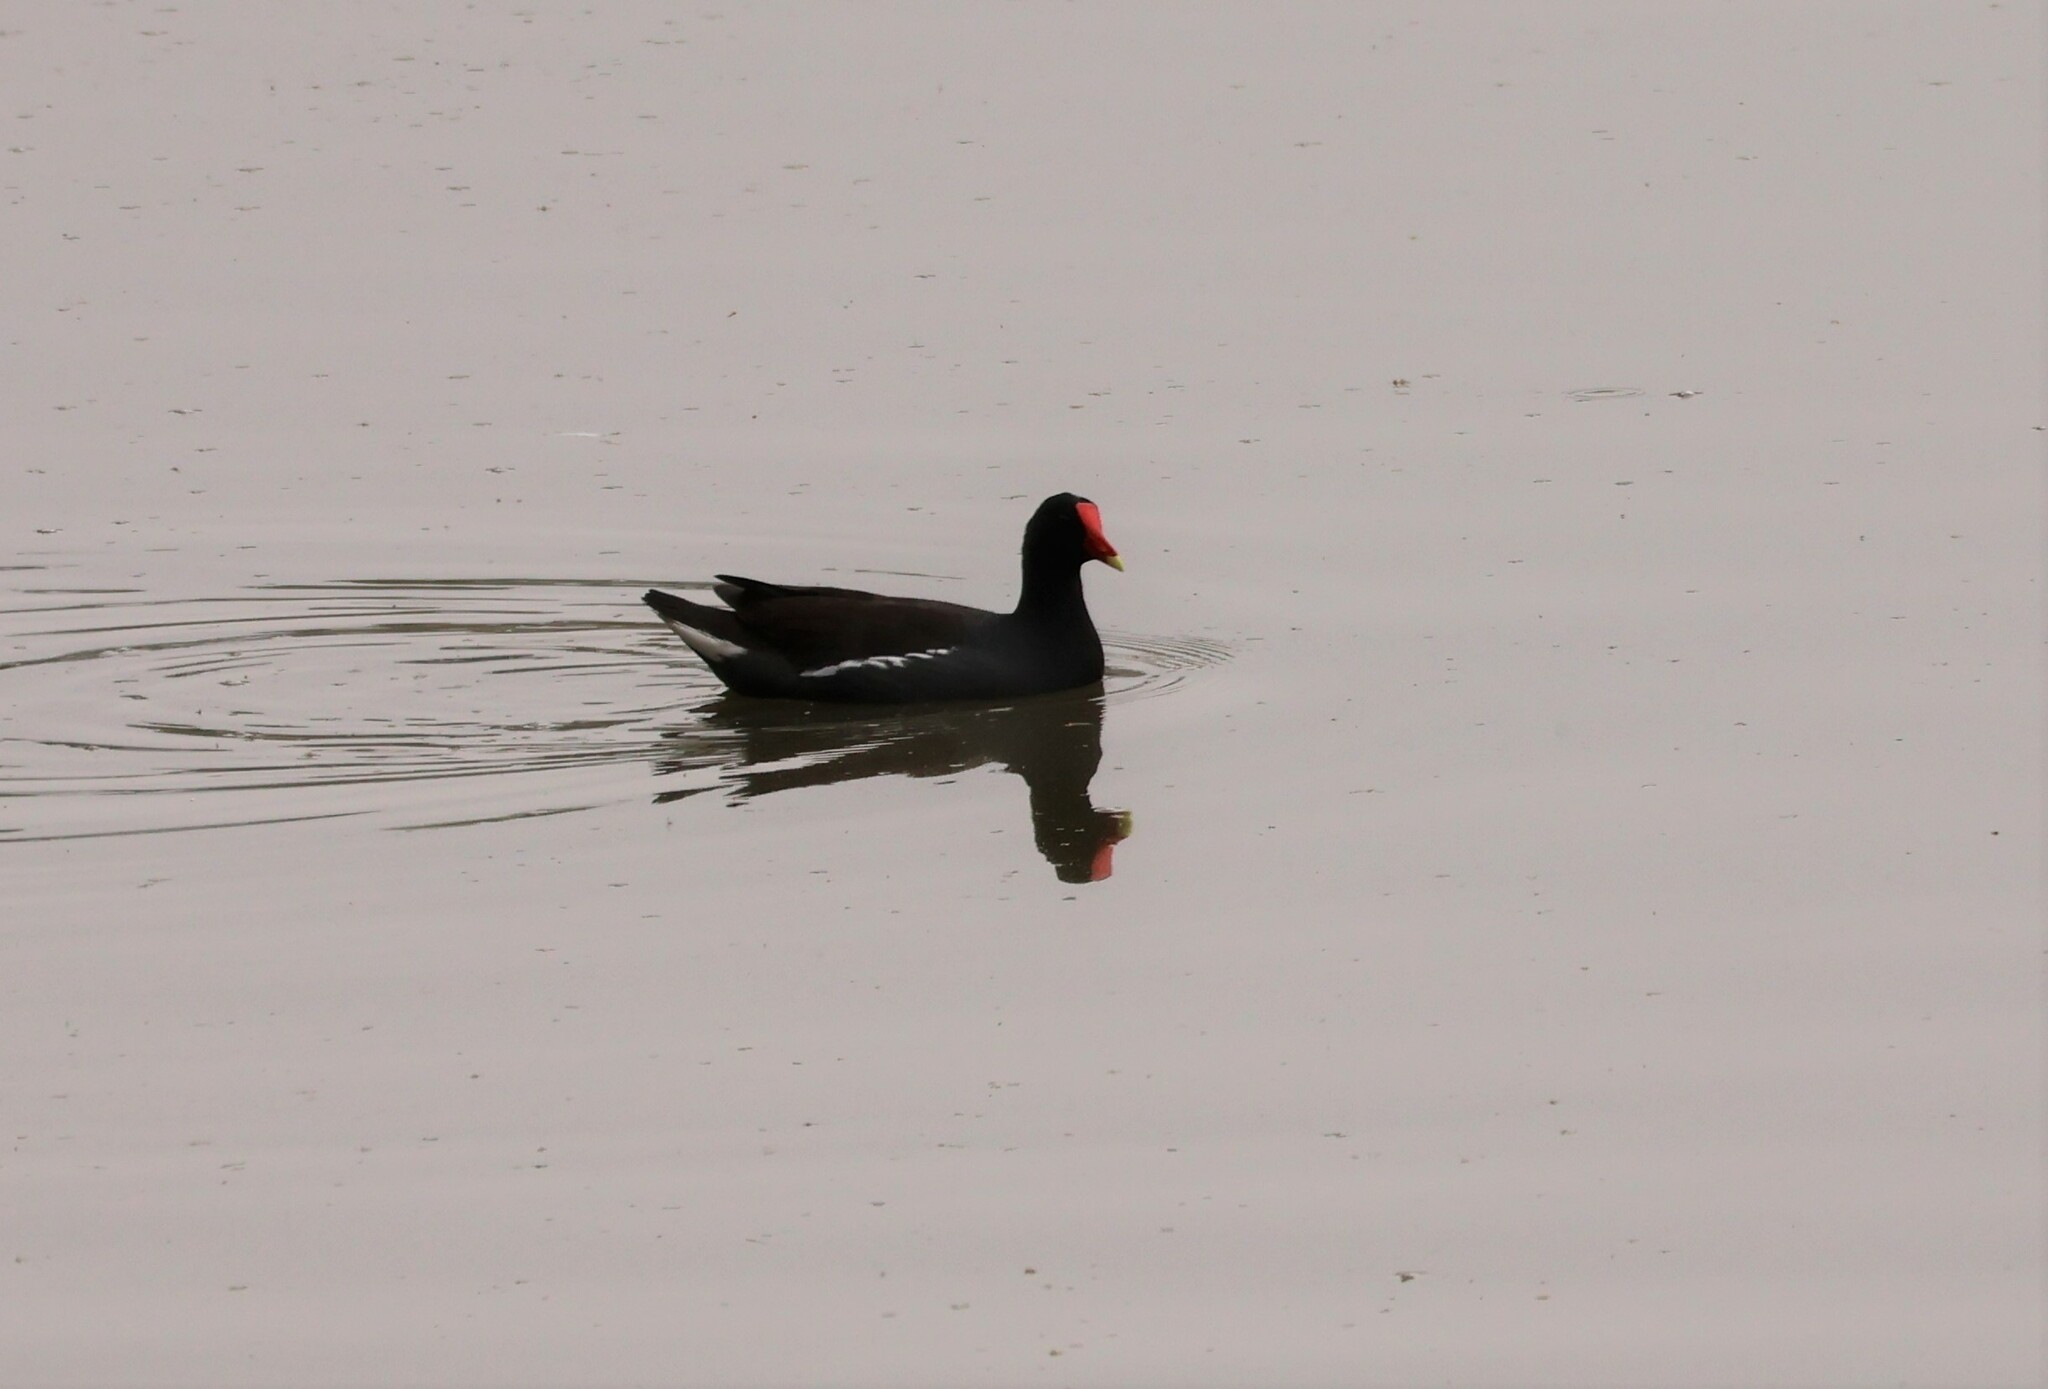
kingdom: Animalia
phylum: Chordata
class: Aves
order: Gruiformes
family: Rallidae
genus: Gallinula
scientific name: Gallinula chloropus
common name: Common moorhen
